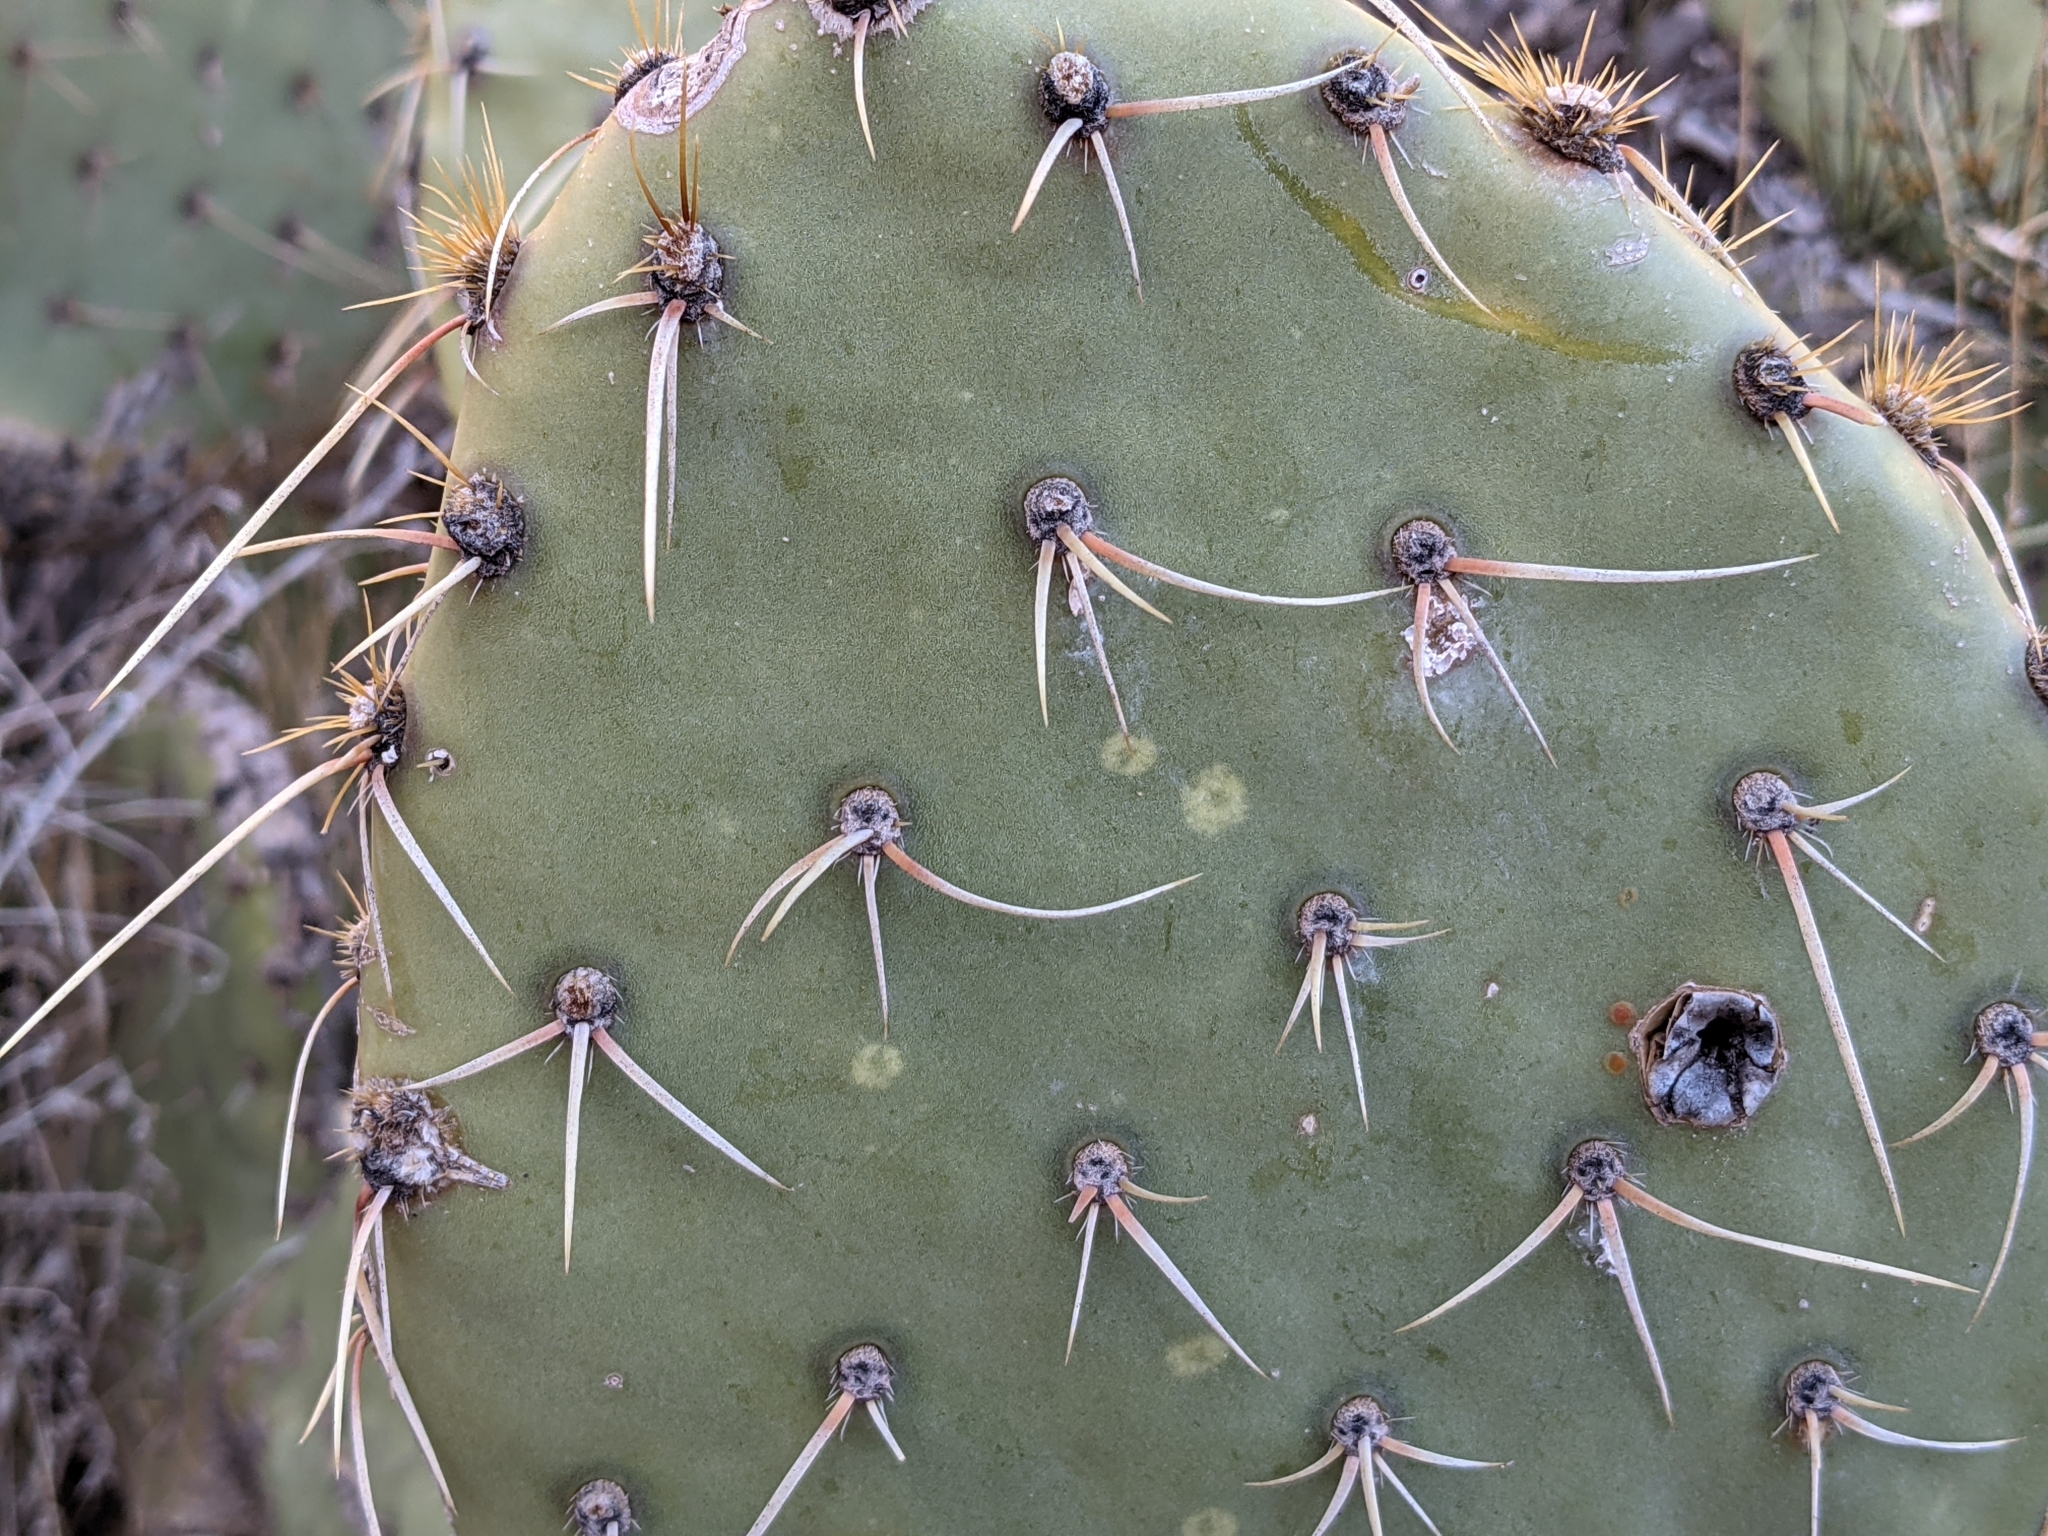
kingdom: Plantae
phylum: Tracheophyta
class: Magnoliopsida
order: Caryophyllales
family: Cactaceae
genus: Opuntia
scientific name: Opuntia phaeacantha
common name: New mexico prickly-pear
